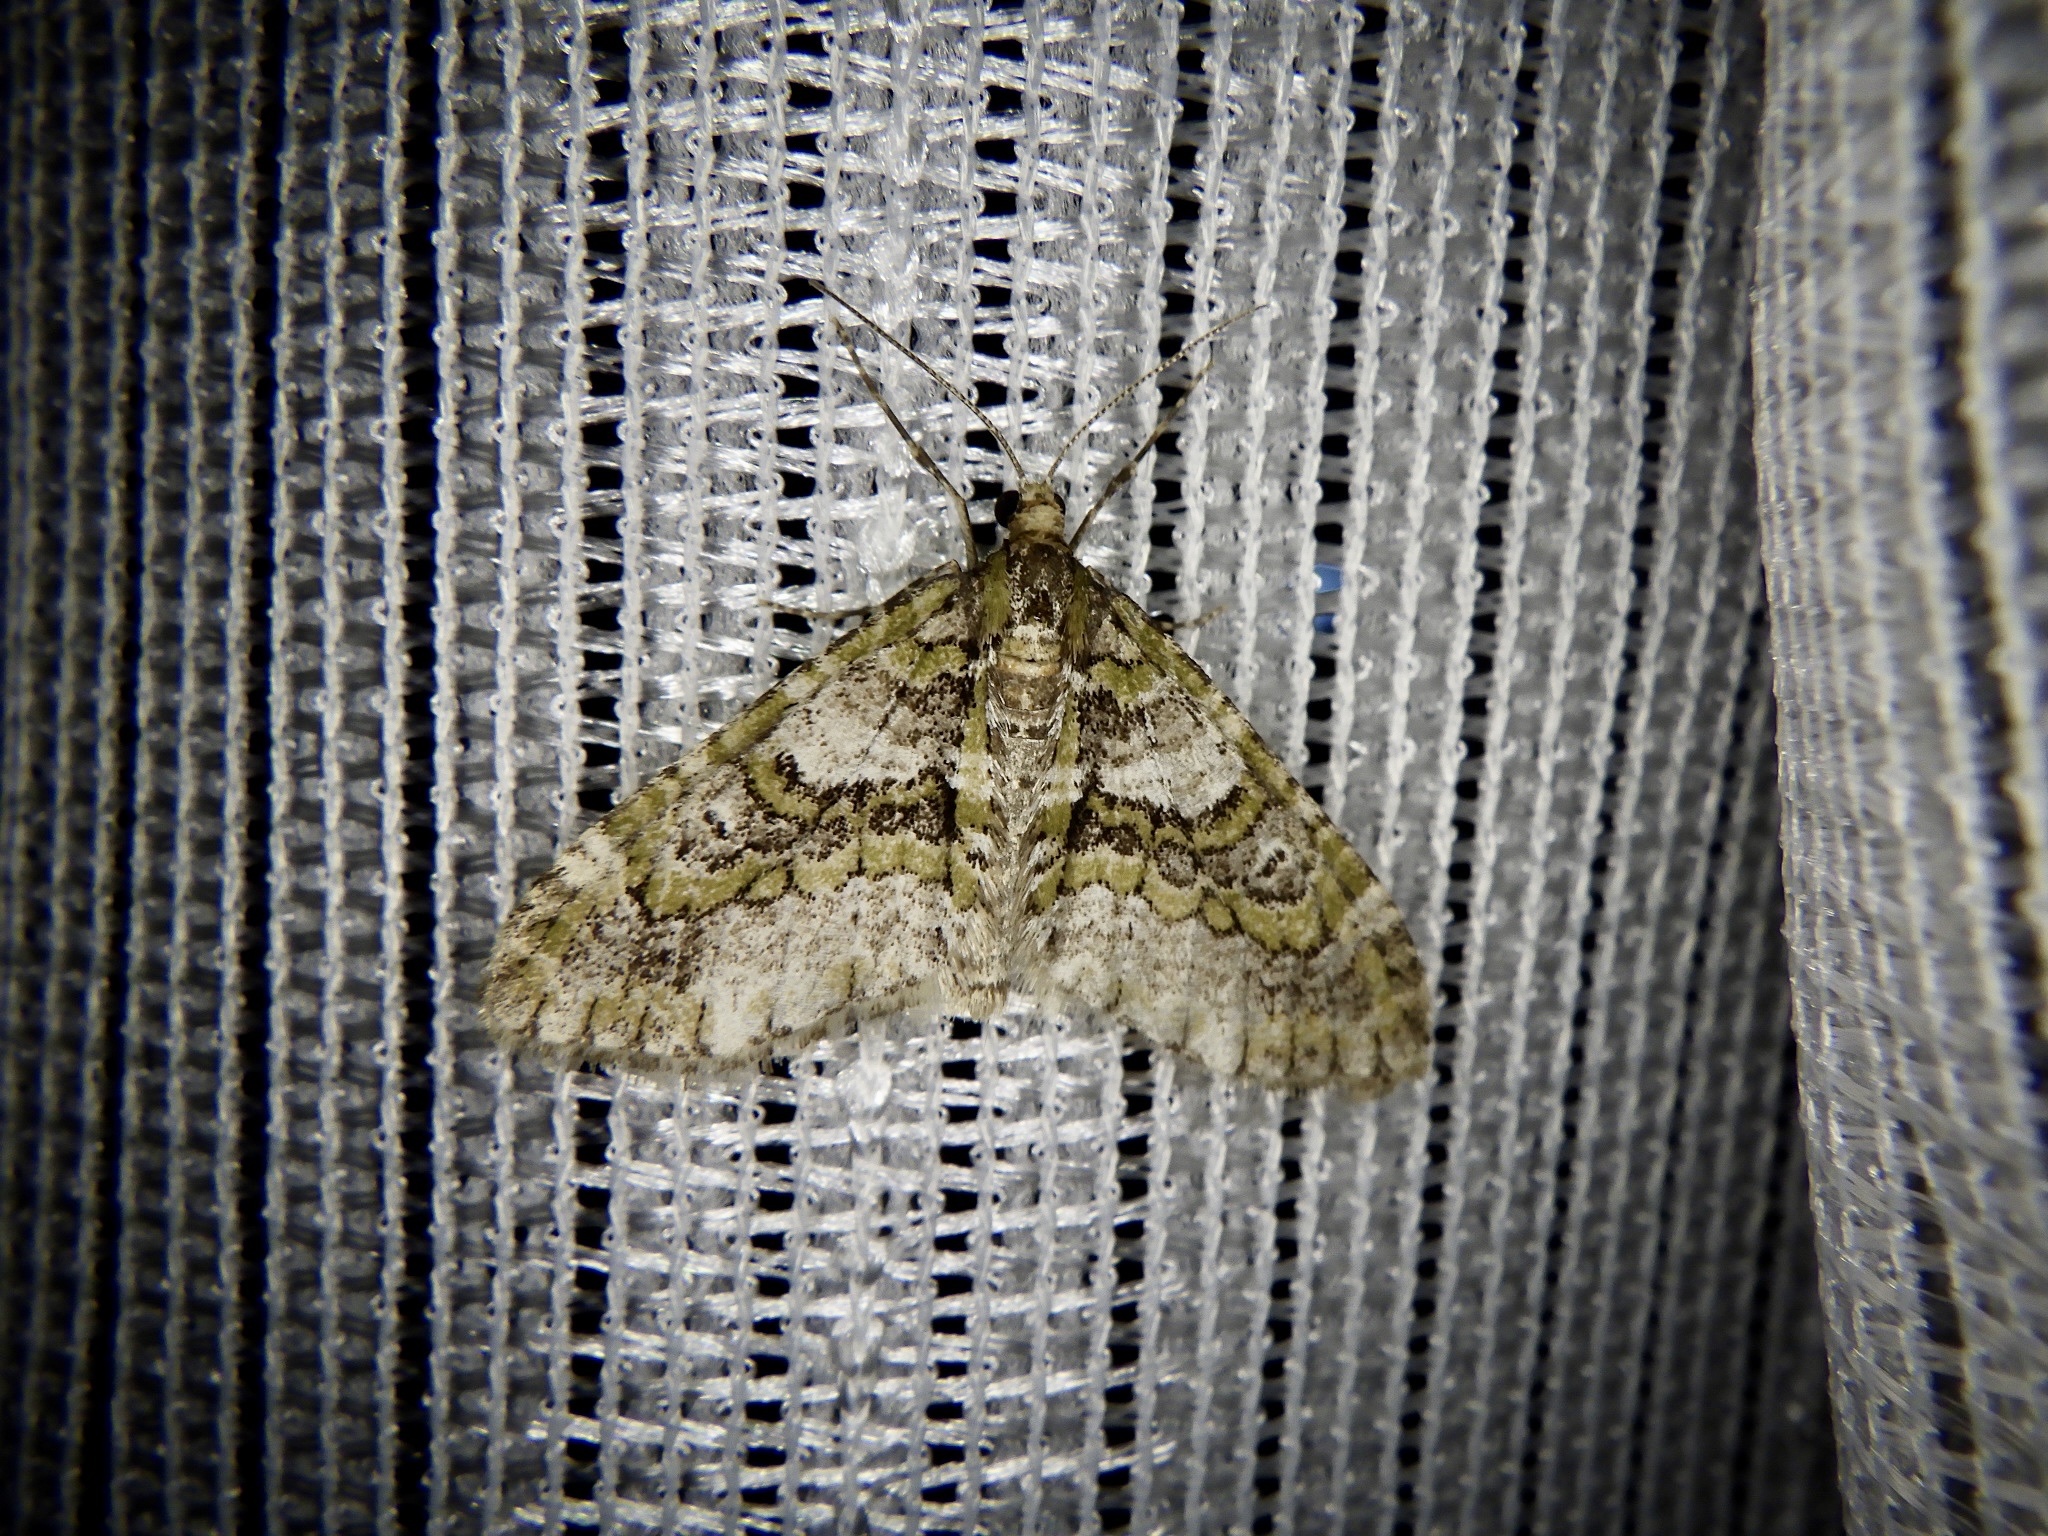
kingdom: Animalia
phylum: Arthropoda
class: Insecta
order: Lepidoptera
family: Geometridae
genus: Esakiopteryx
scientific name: Esakiopteryx volitans
